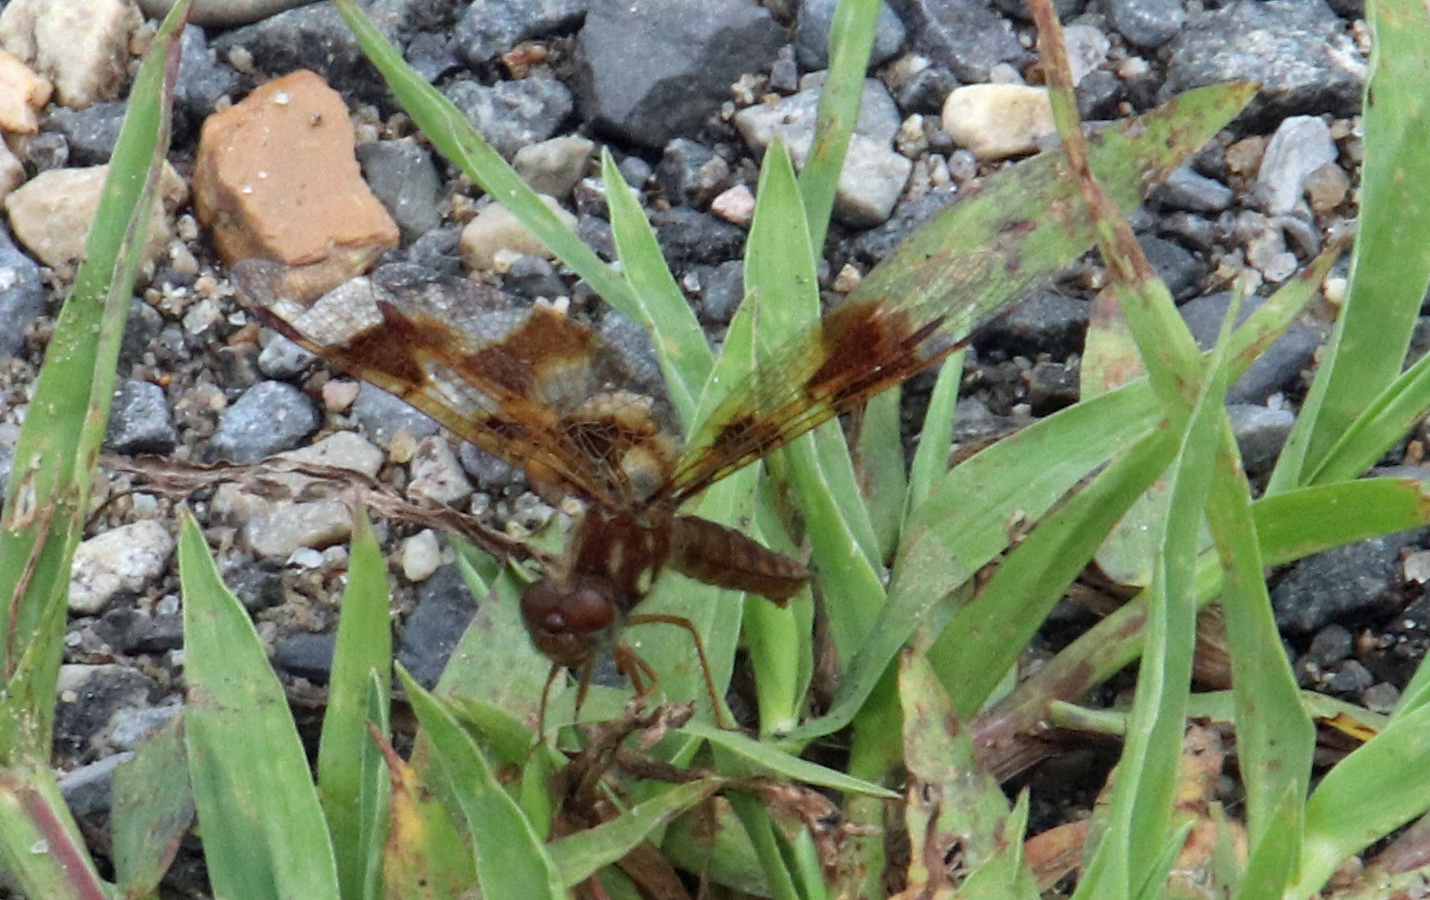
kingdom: Animalia
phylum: Arthropoda
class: Insecta
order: Odonata
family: Libellulidae
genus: Perithemis
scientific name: Perithemis tenera
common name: Eastern amberwing
